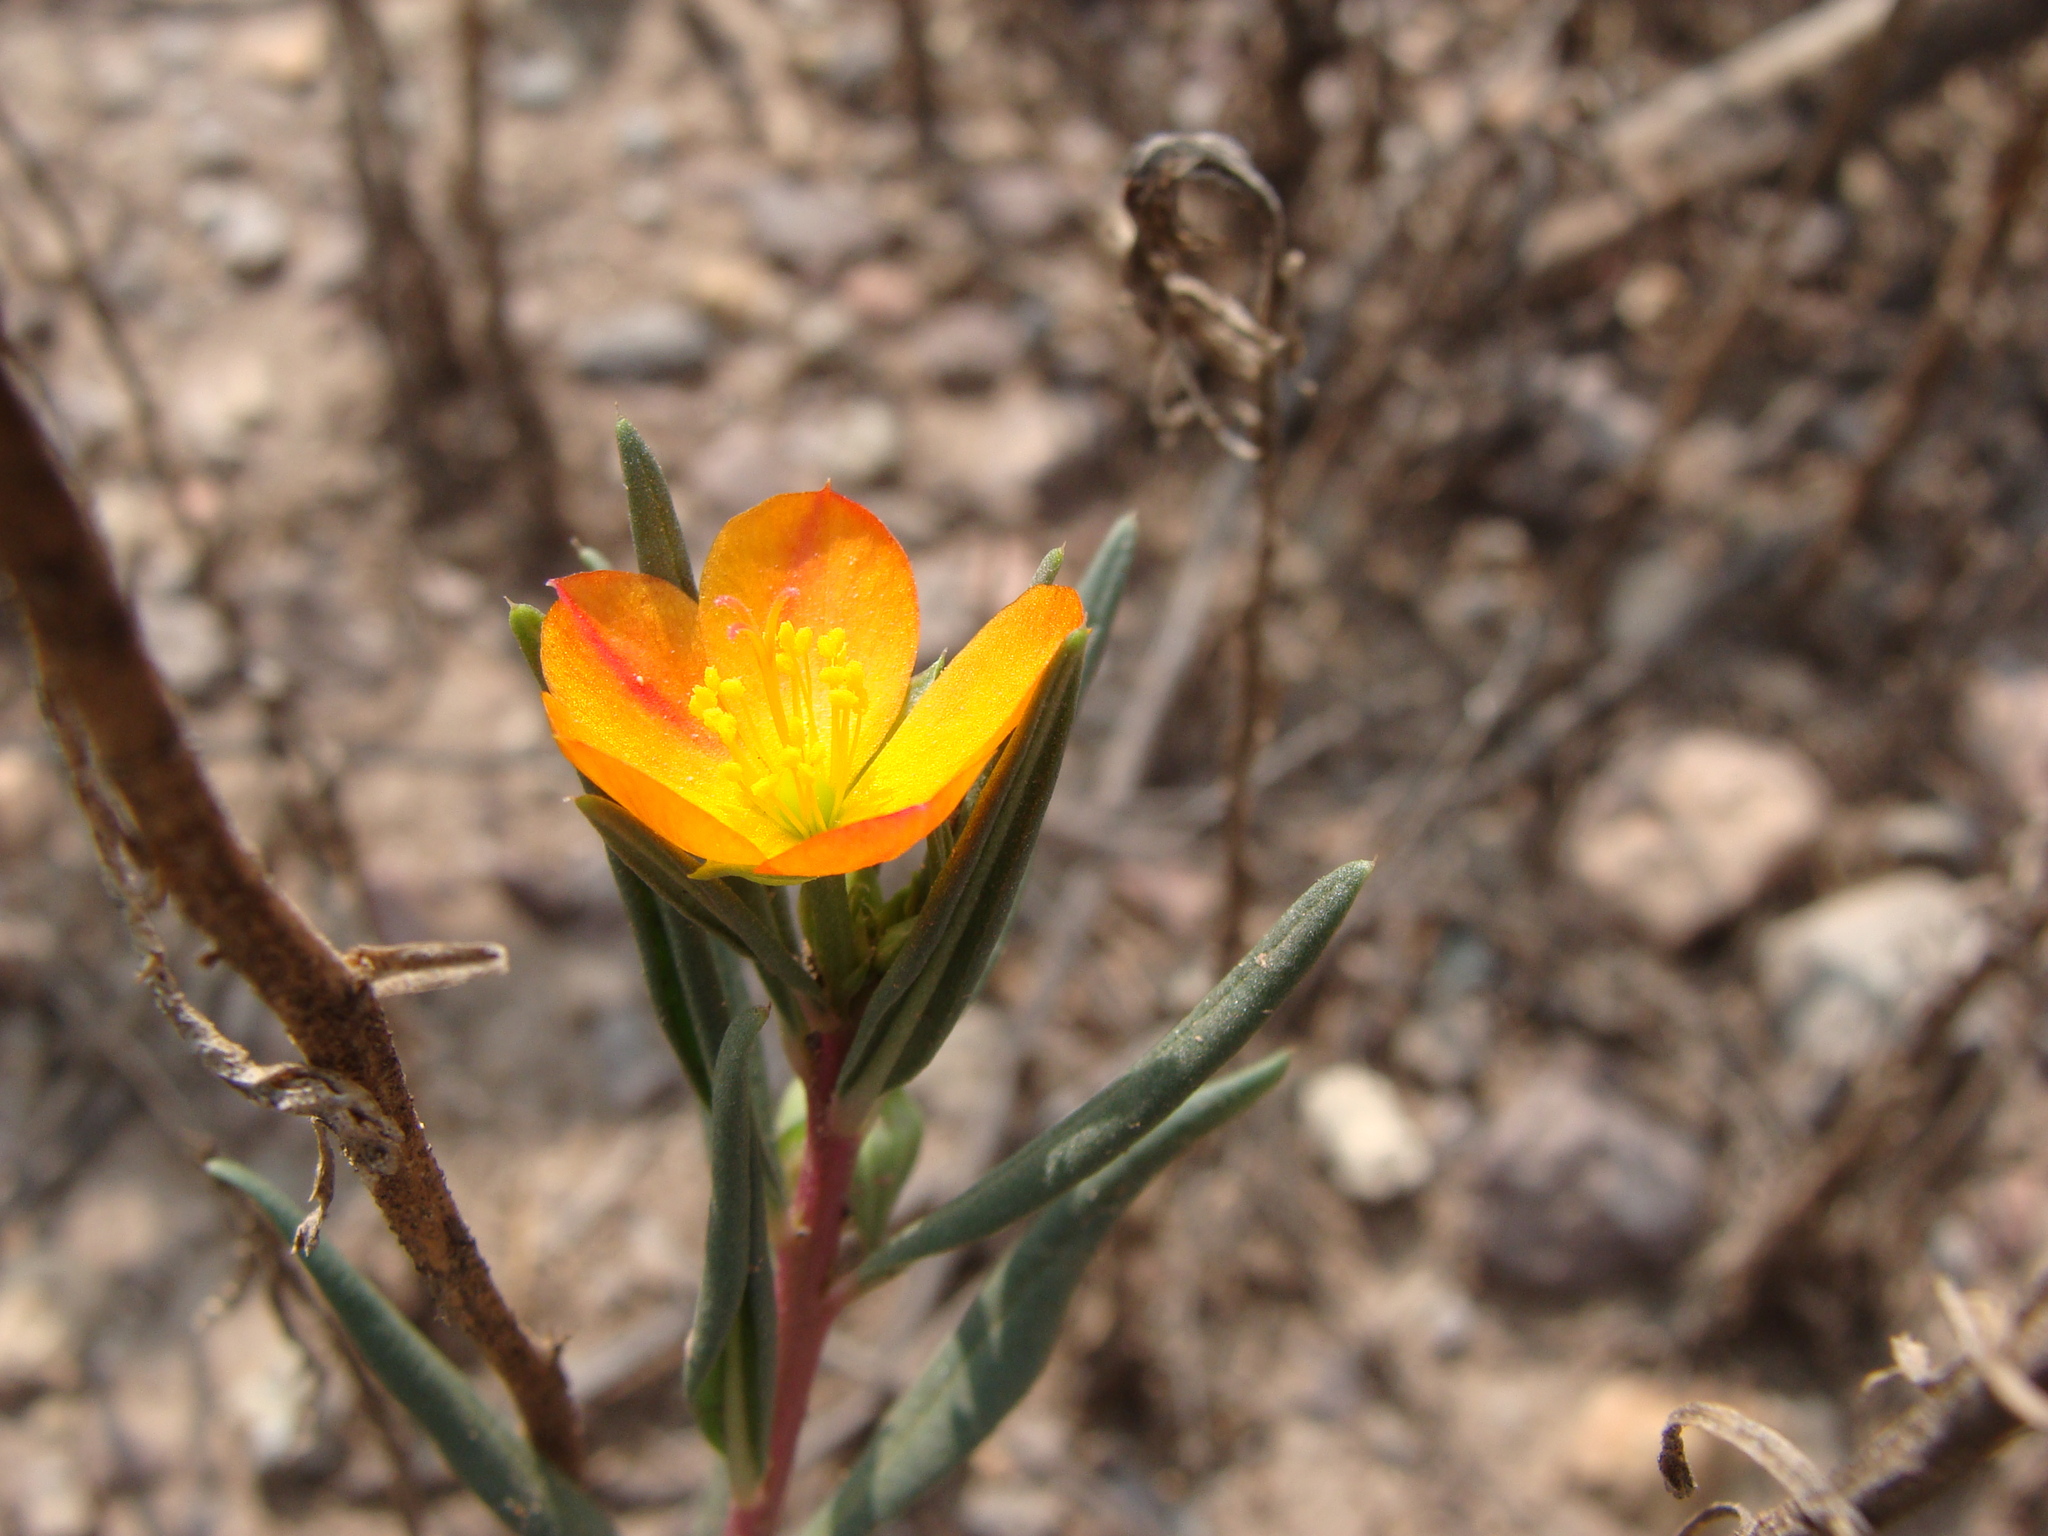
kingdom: Plantae
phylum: Tracheophyta
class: Magnoliopsida
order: Caryophyllales
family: Montiaceae
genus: Phemeranthus
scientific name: Phemeranthus aurantiacus
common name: Orange fameflower
